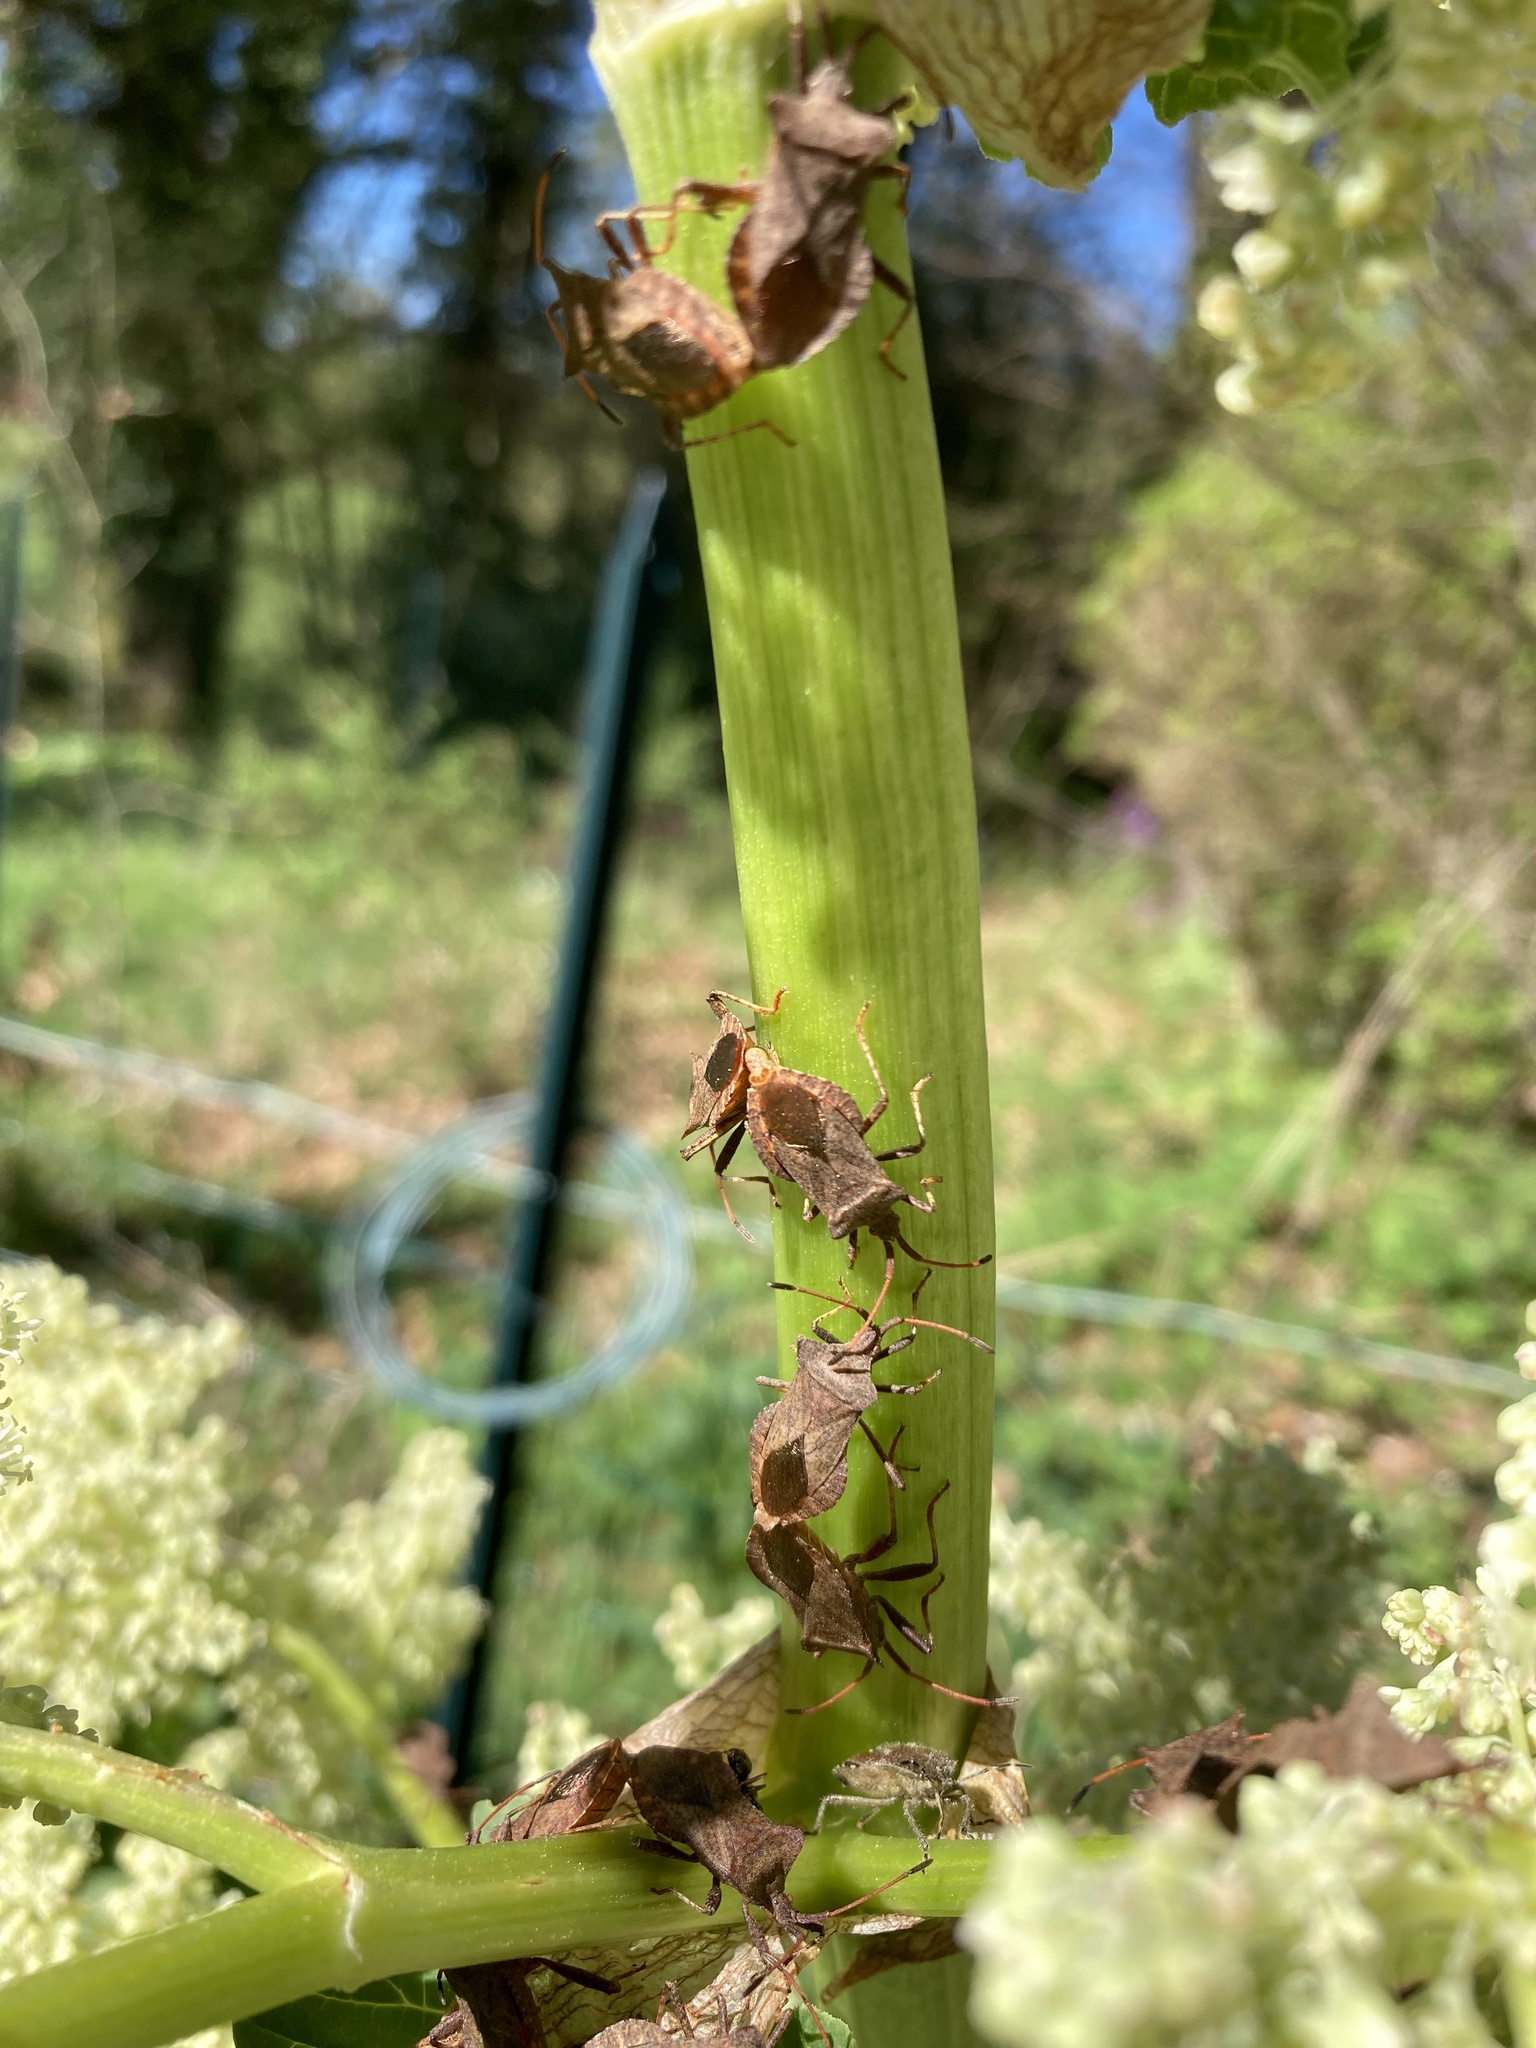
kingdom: Animalia
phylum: Arthropoda
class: Insecta
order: Hemiptera
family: Coreidae
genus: Coreus
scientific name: Coreus marginatus
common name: Dock bug
